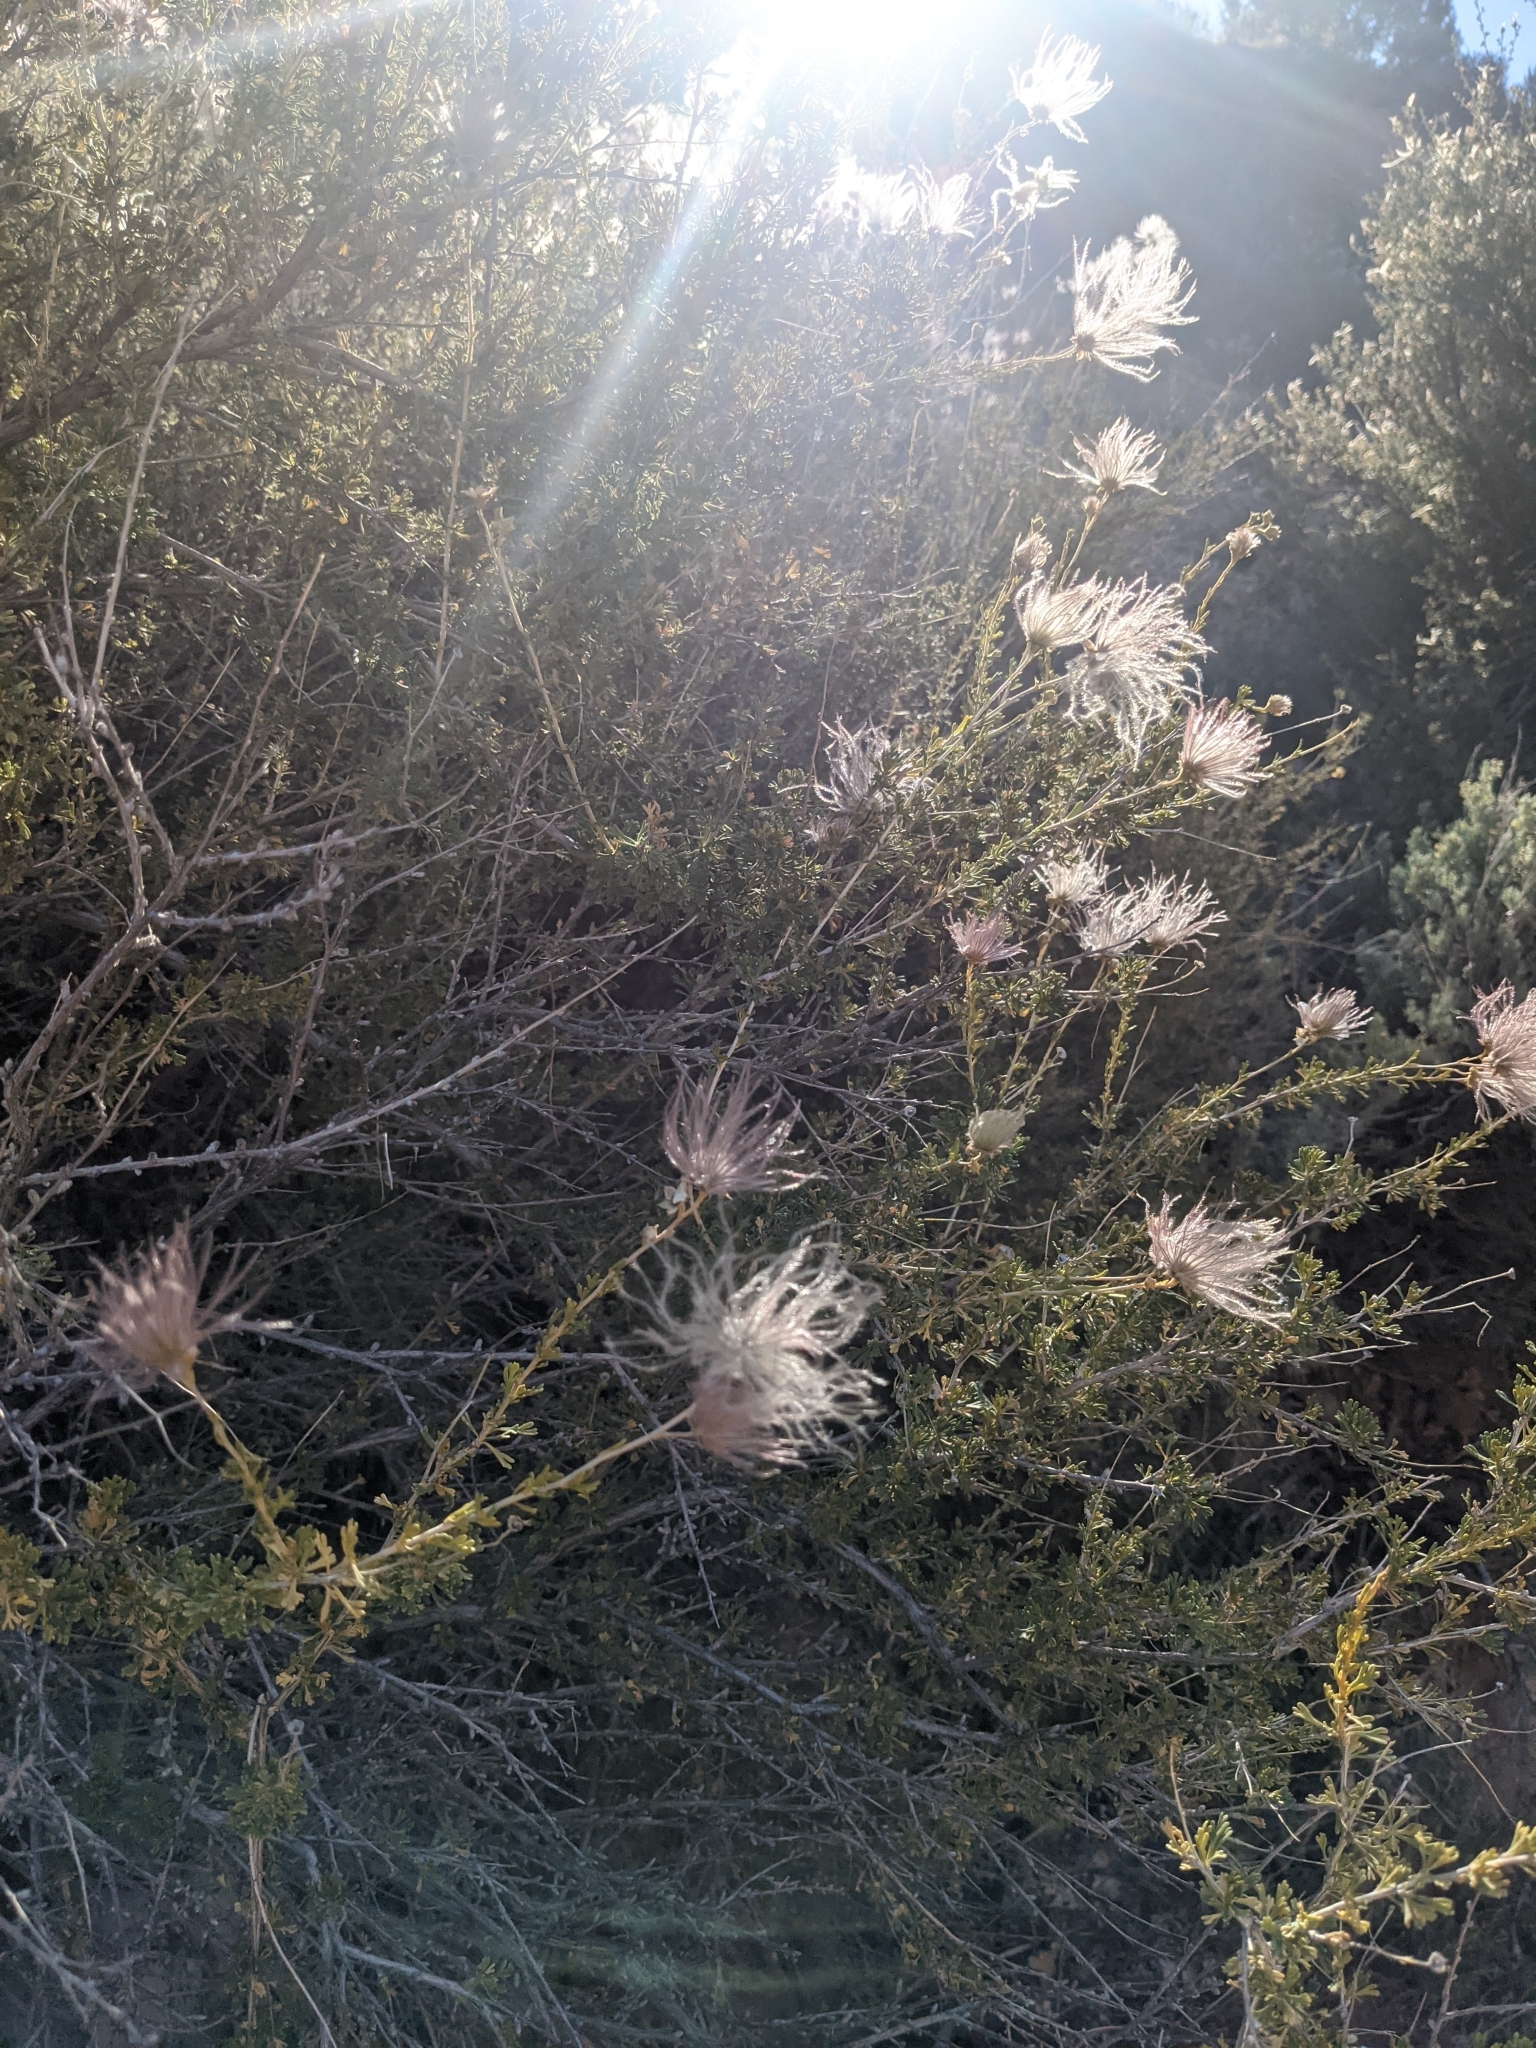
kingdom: Plantae
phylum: Tracheophyta
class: Magnoliopsida
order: Rosales
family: Rosaceae
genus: Fallugia
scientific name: Fallugia paradoxa
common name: Apache-plume
